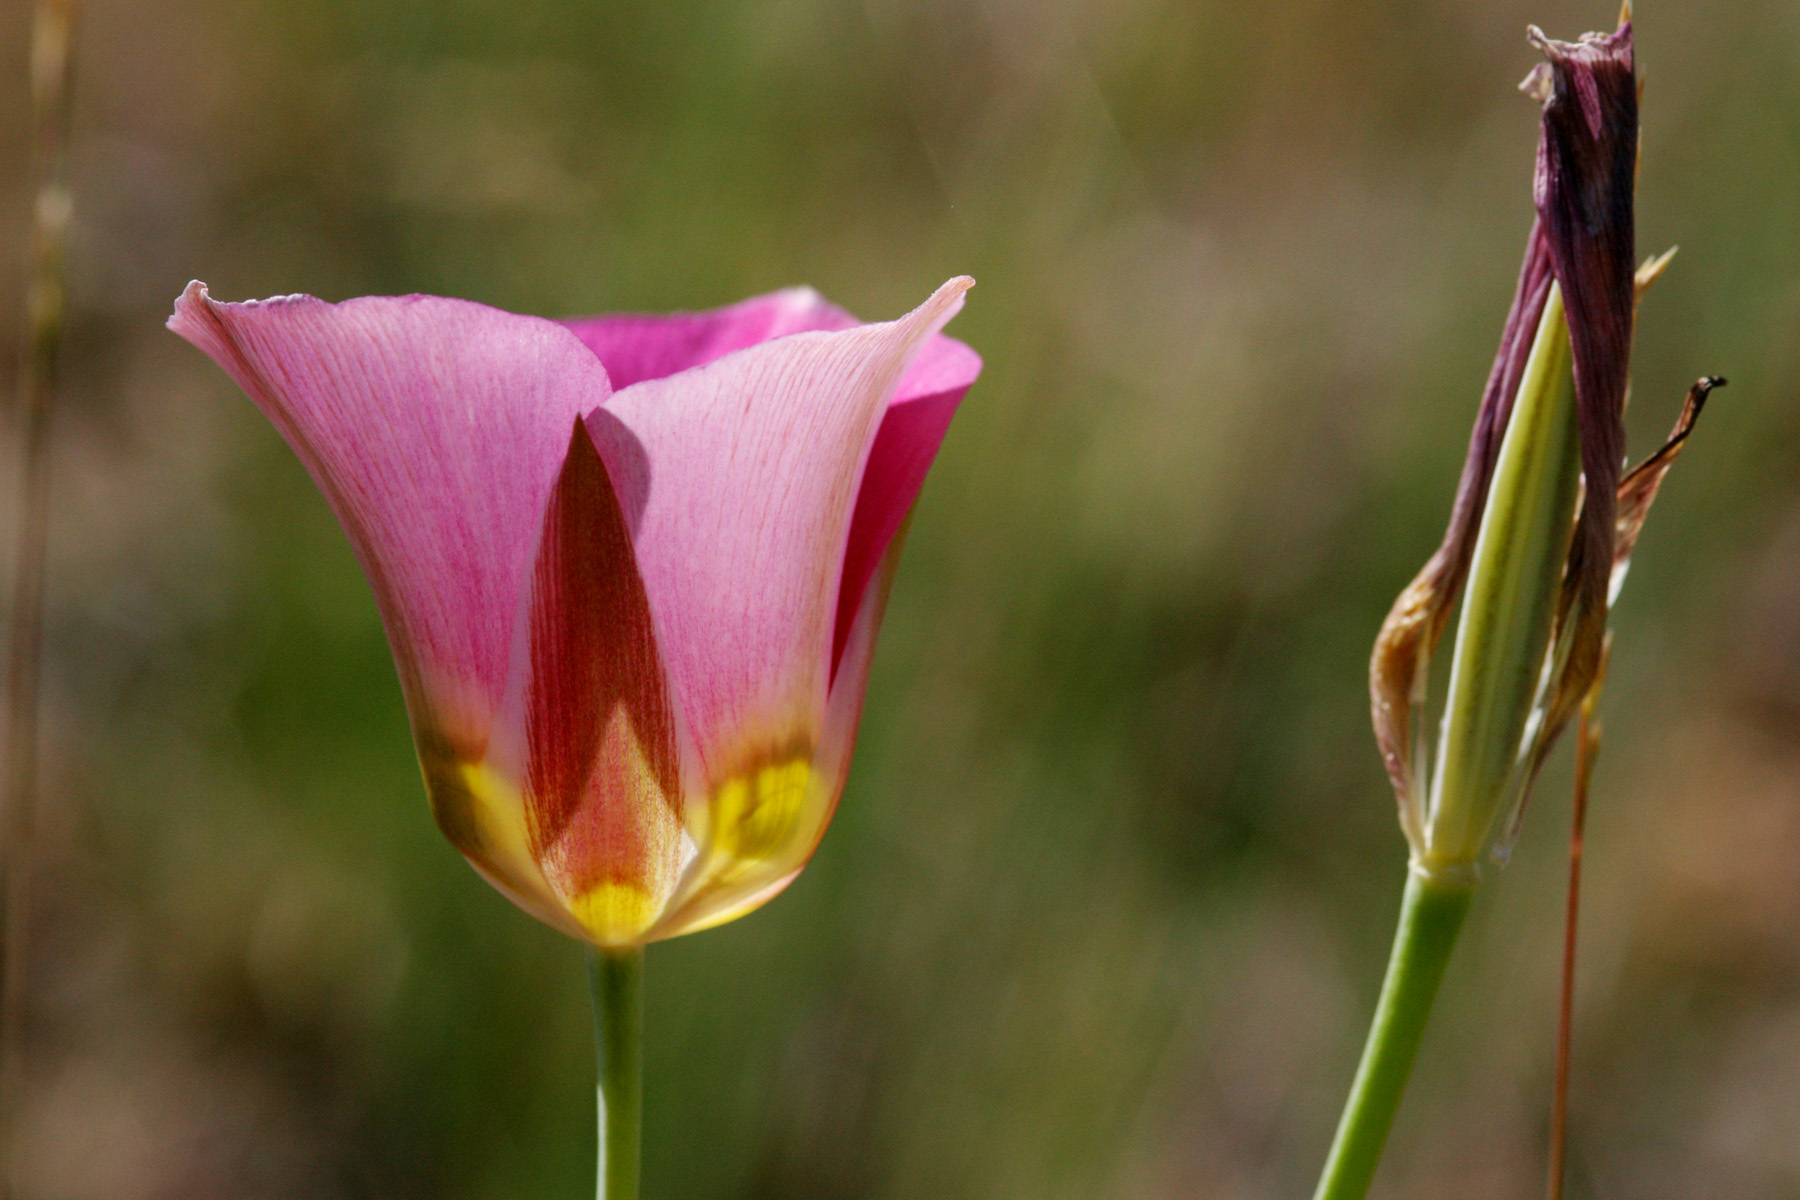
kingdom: Plantae
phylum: Tracheophyta
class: Liliopsida
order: Liliales
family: Liliaceae
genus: Calochortus
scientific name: Calochortus nuttallii
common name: Sego-lily
